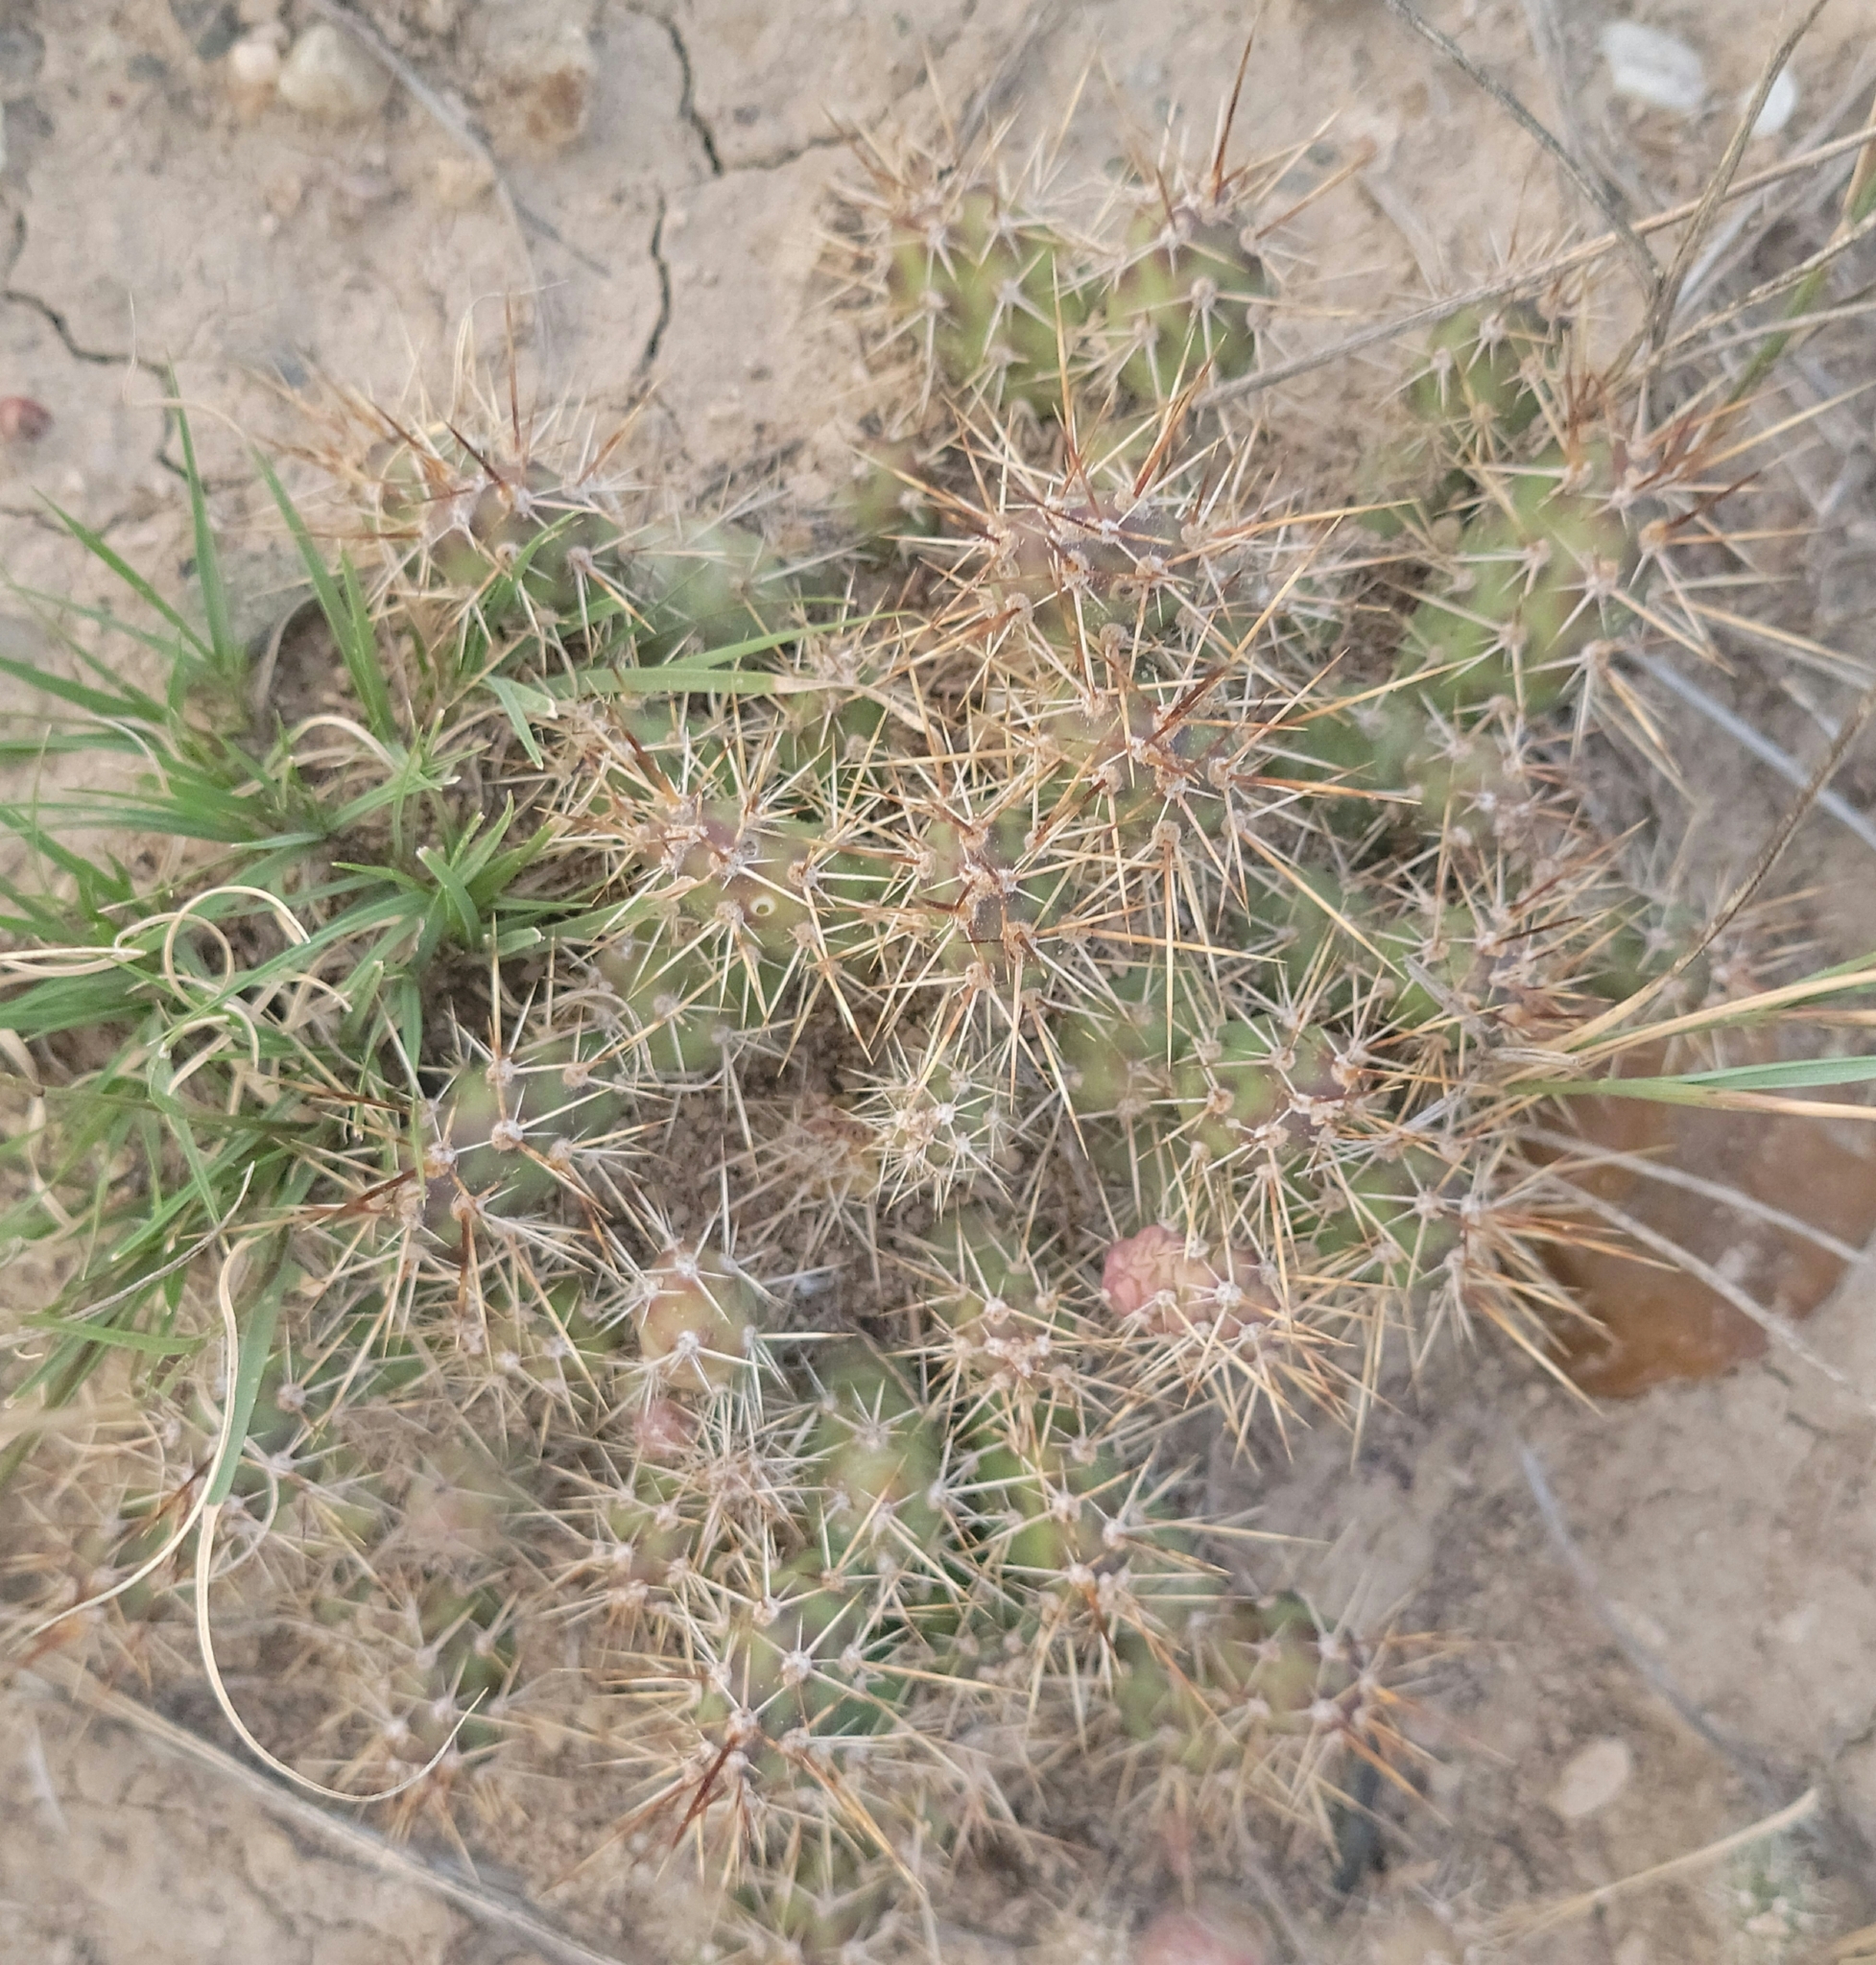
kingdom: Plantae
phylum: Tracheophyta
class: Magnoliopsida
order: Caryophyllales
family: Cactaceae
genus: Opuntia
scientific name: Opuntia fragilis
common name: Brittle cactus
